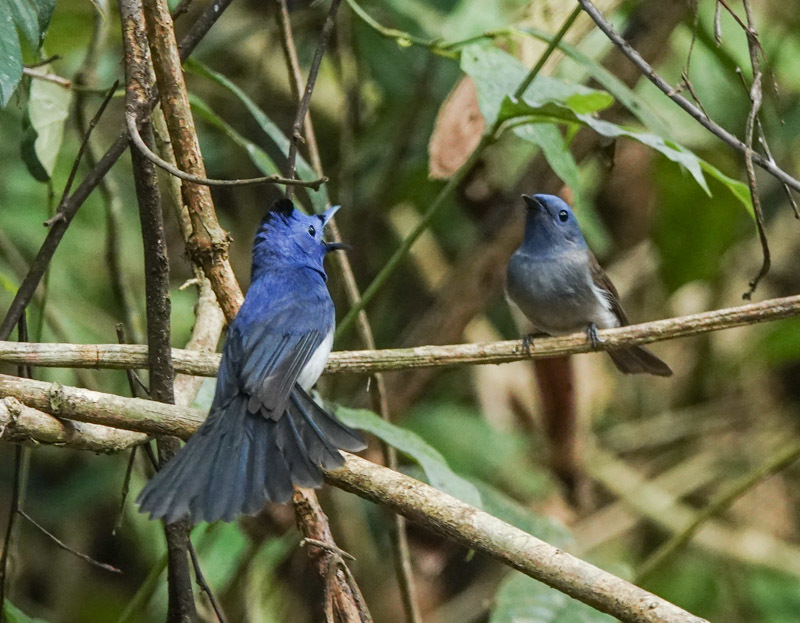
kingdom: Animalia
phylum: Chordata
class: Aves
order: Passeriformes
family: Monarchidae
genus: Hypothymis
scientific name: Hypothymis azurea
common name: Black-naped monarch
